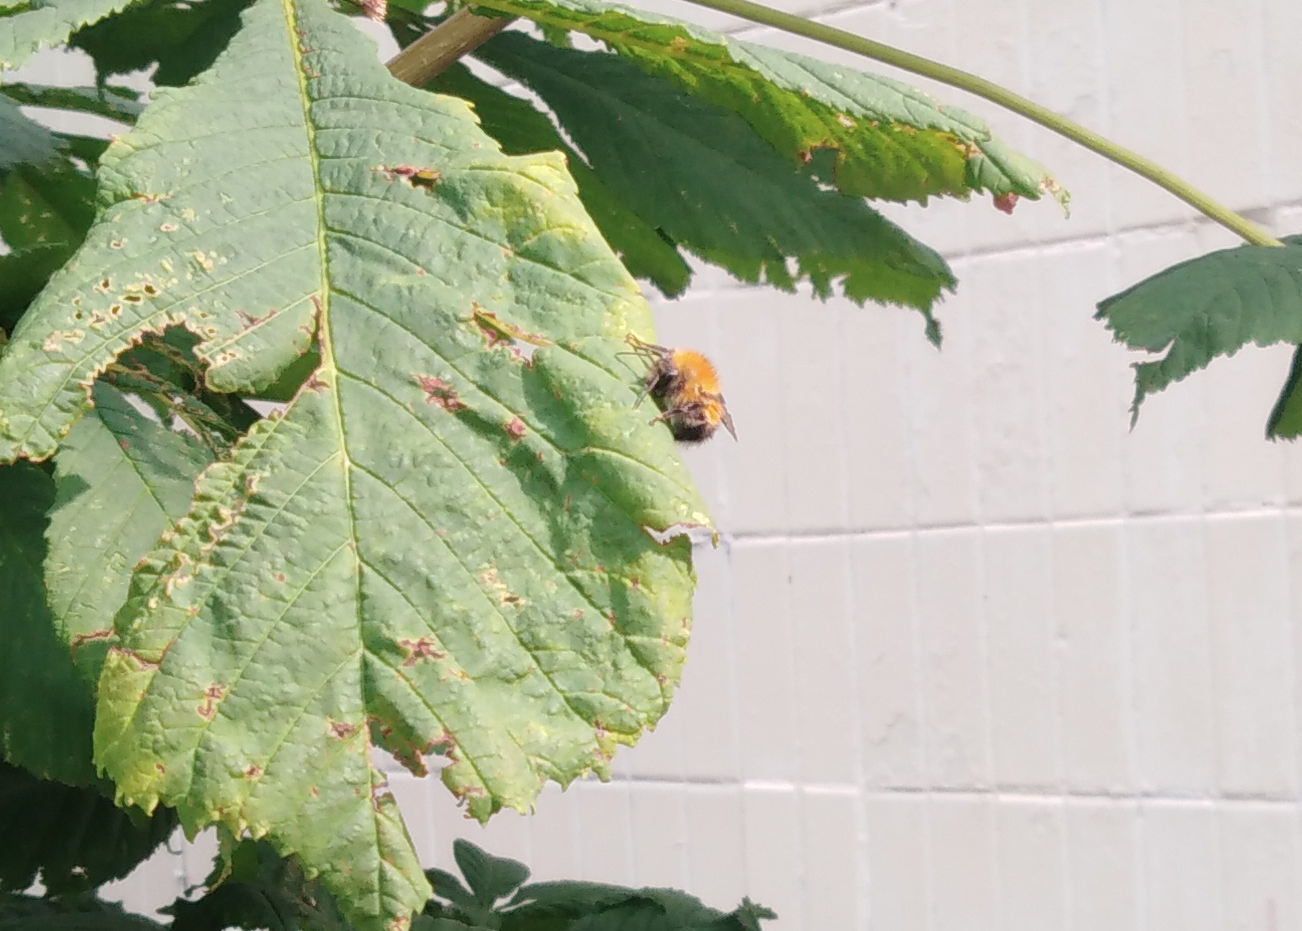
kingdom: Animalia
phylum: Arthropoda
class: Insecta
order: Hymenoptera
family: Apidae
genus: Bombus
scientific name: Bombus hypnorum
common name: New garden bumblebee
